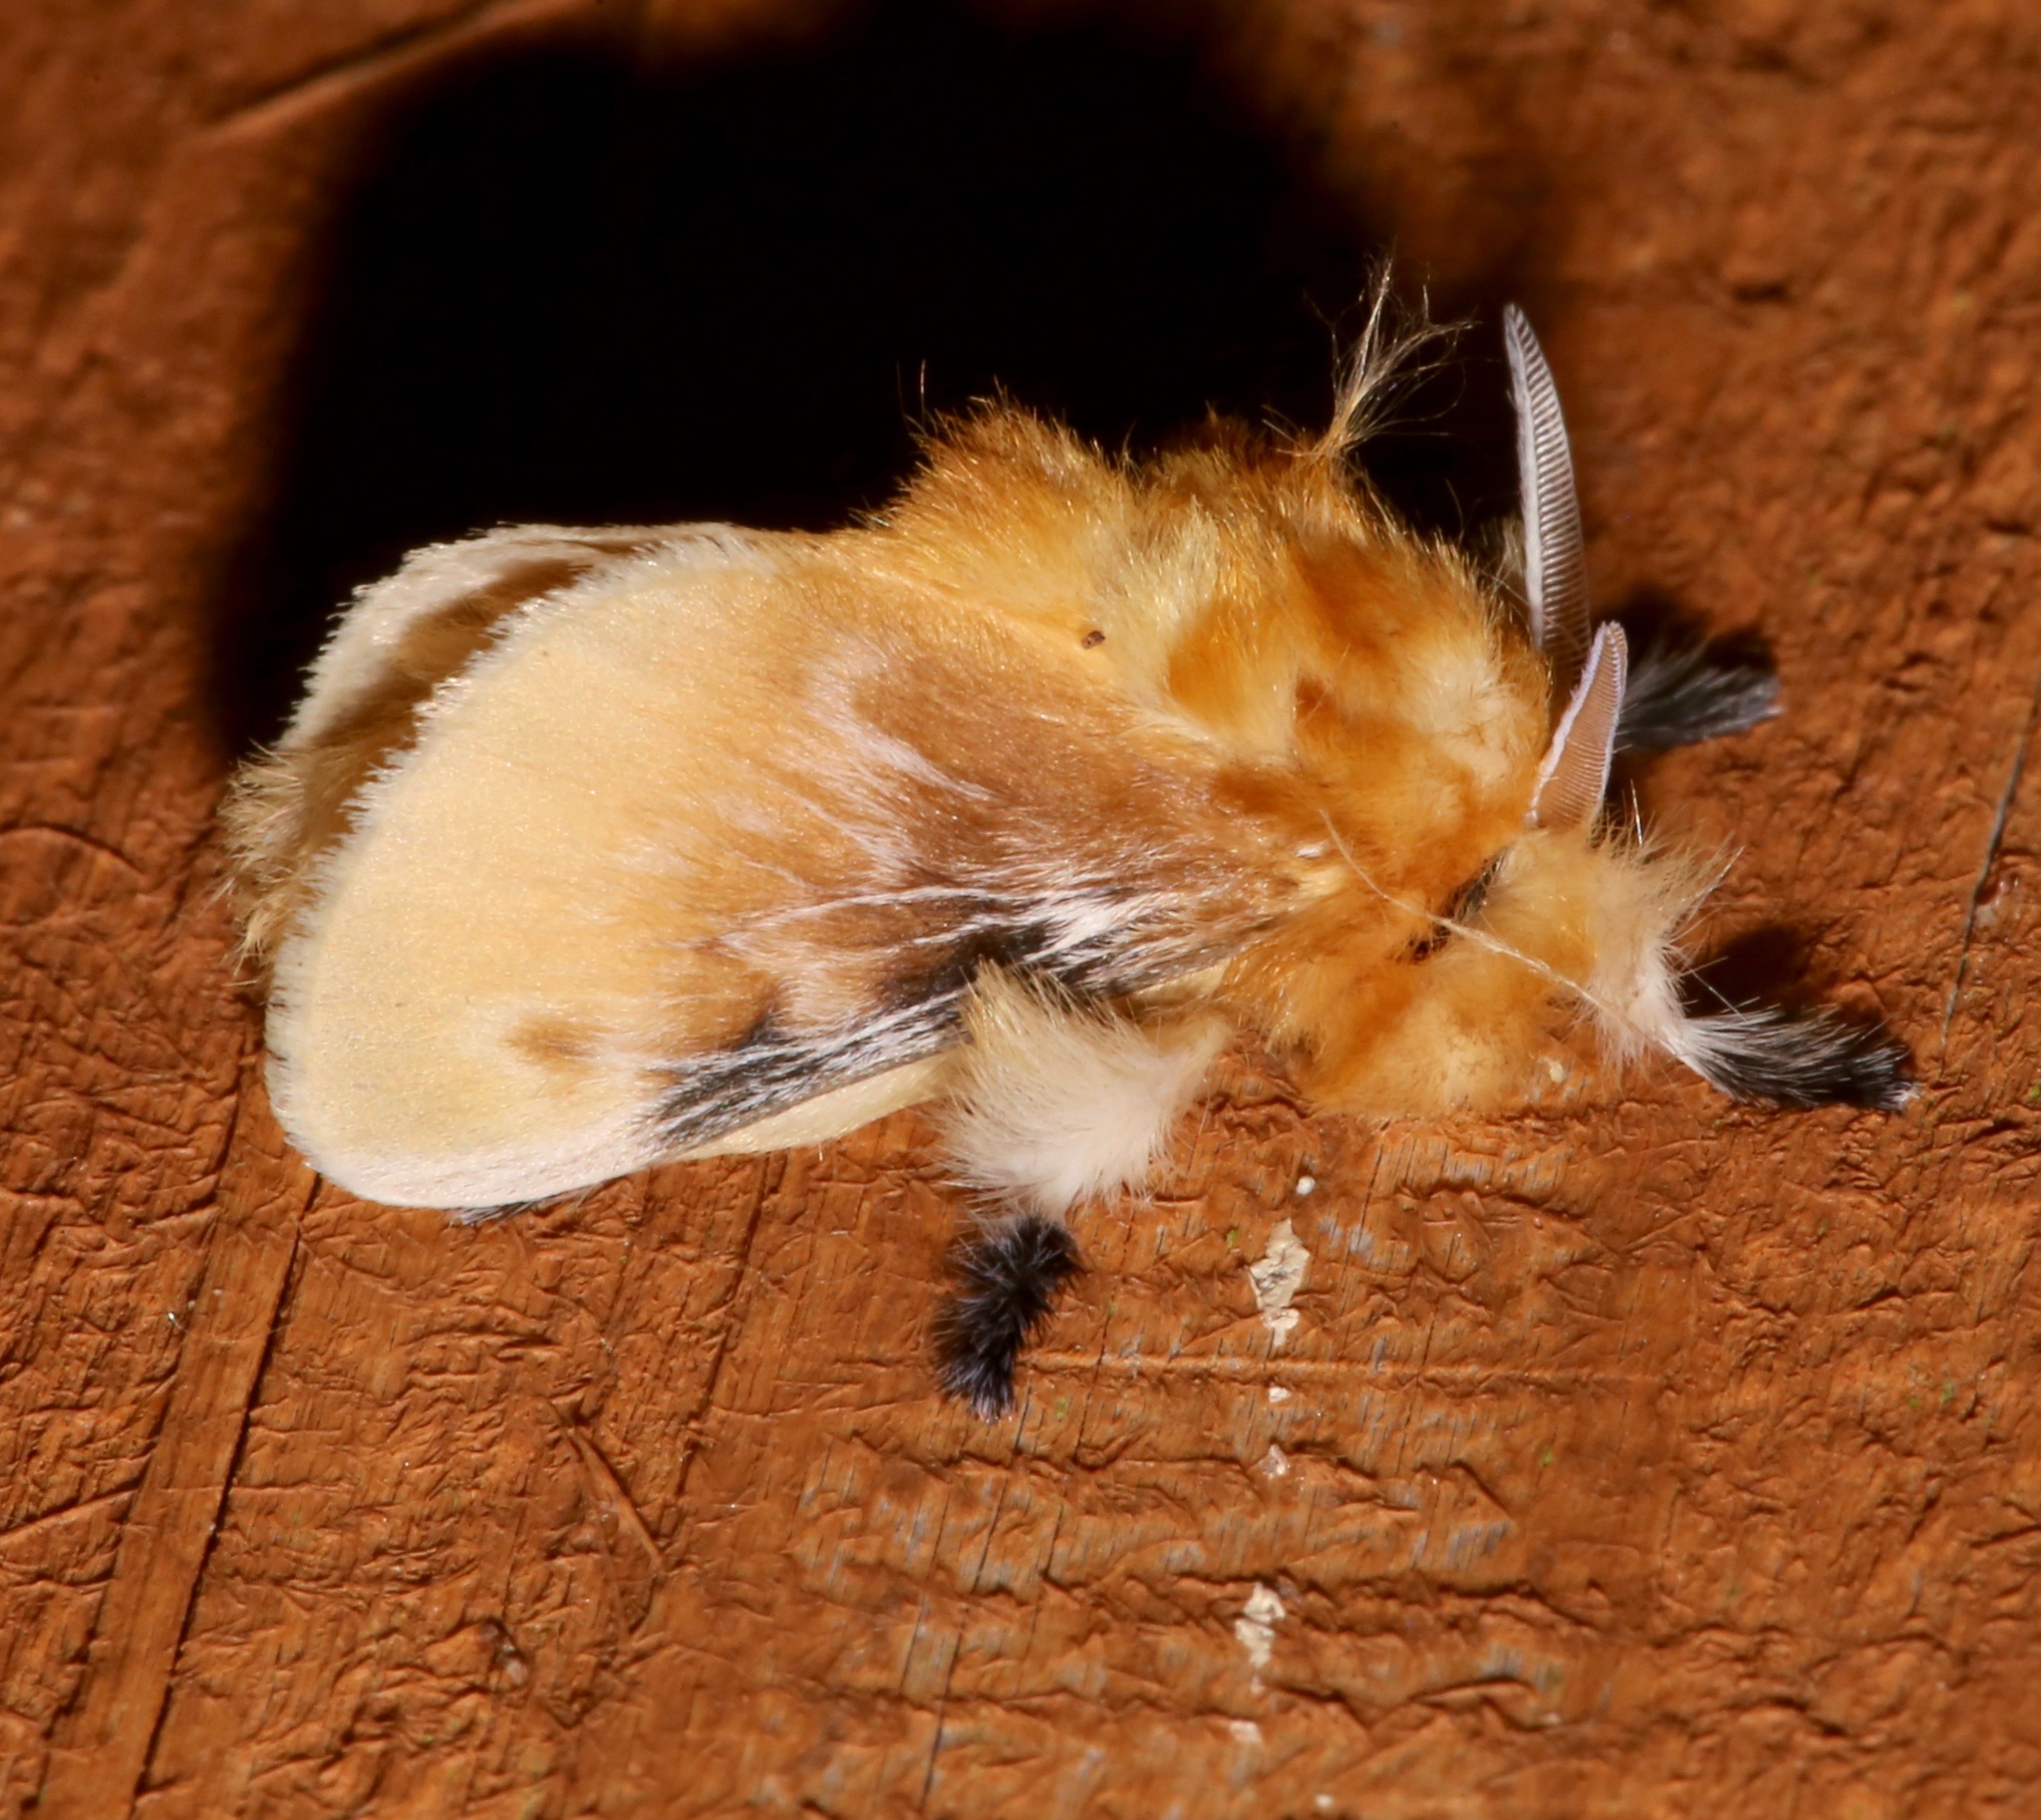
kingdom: Animalia
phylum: Arthropoda
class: Insecta
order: Lepidoptera
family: Megalopygidae
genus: Megalopyge
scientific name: Megalopyge opercularis
